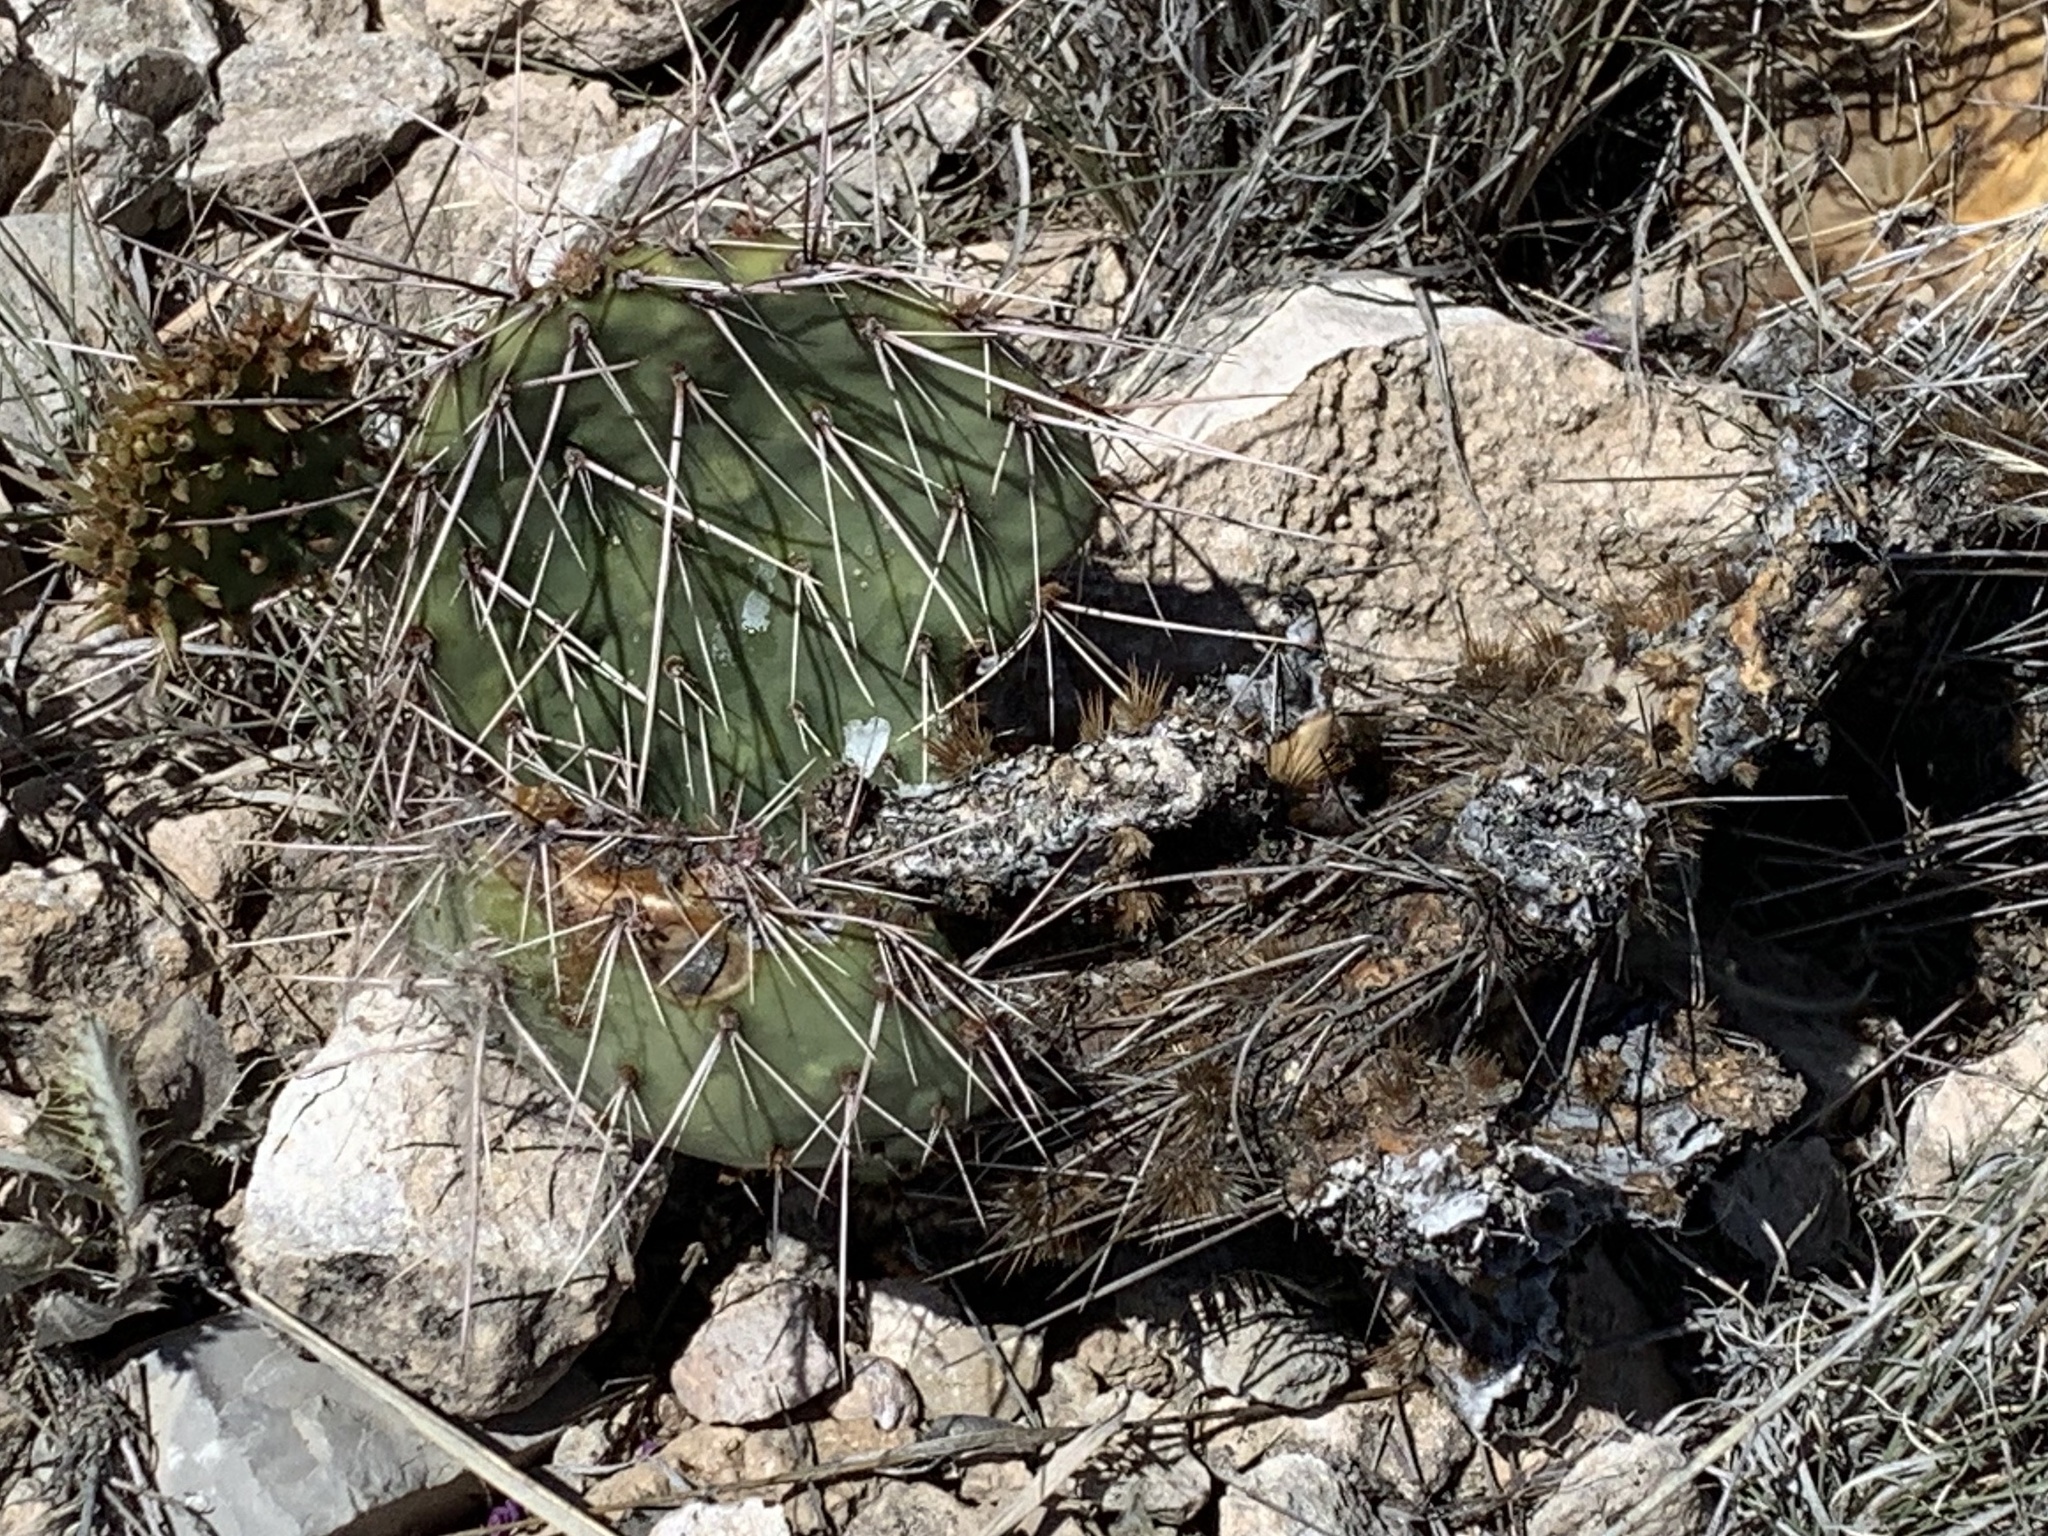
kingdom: Plantae
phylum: Tracheophyta
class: Magnoliopsida
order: Caryophyllales
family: Cactaceae
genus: Opuntia
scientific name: Opuntia macrorhiza
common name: Grassland pricklypear
